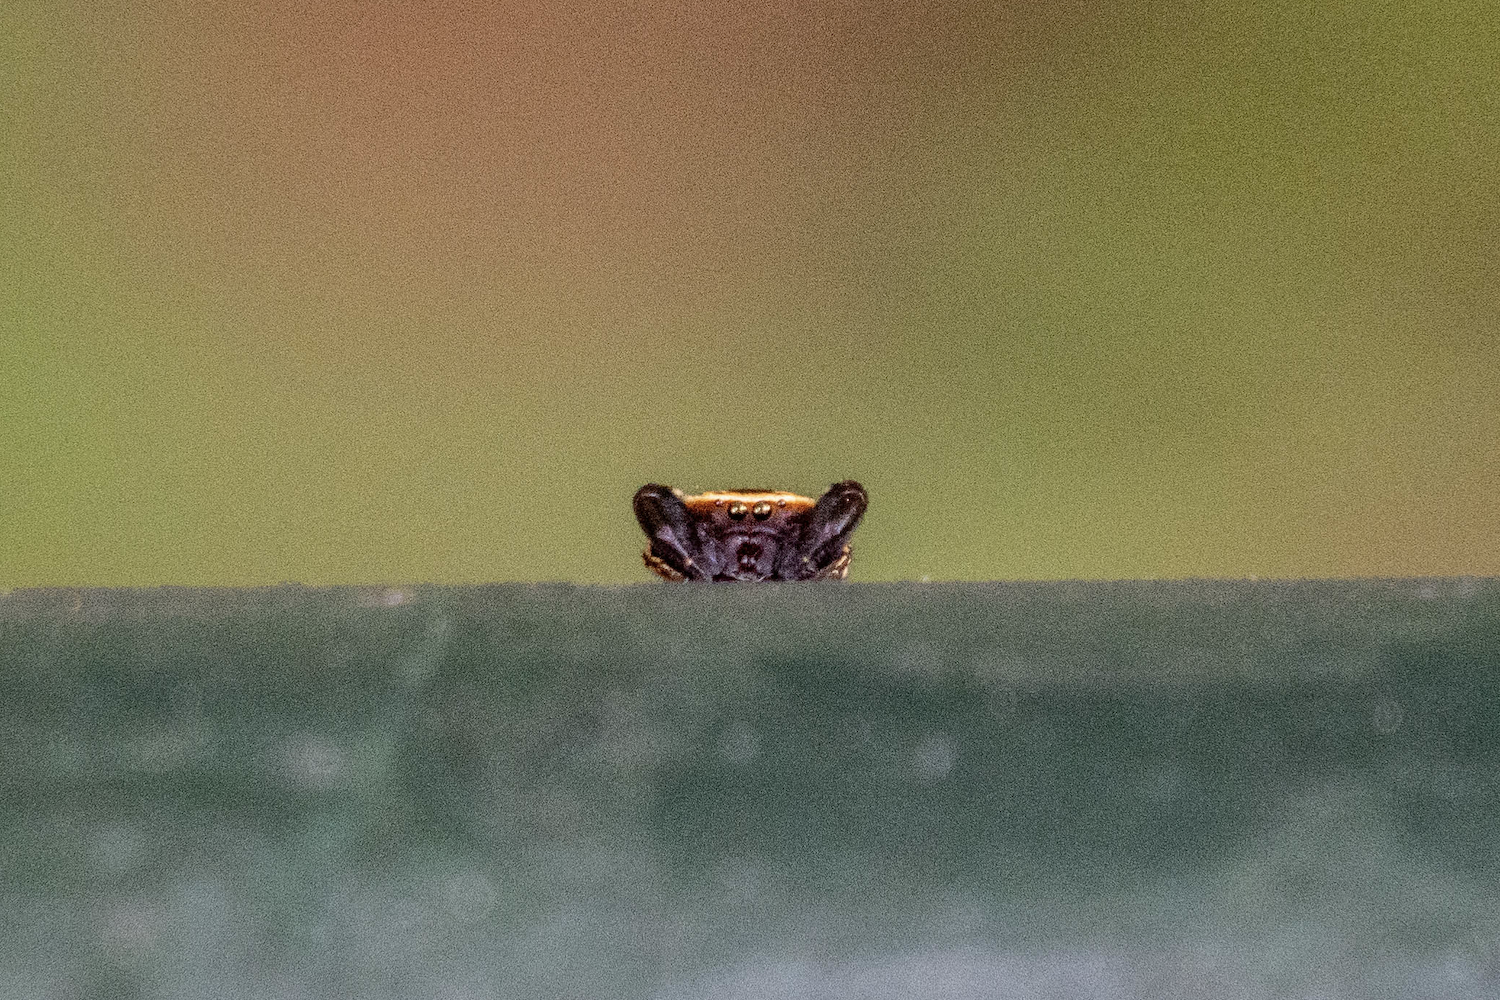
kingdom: Animalia
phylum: Arthropoda
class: Arachnida
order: Araneae
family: Salticidae
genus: Rhene
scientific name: Rhene flavicomans
